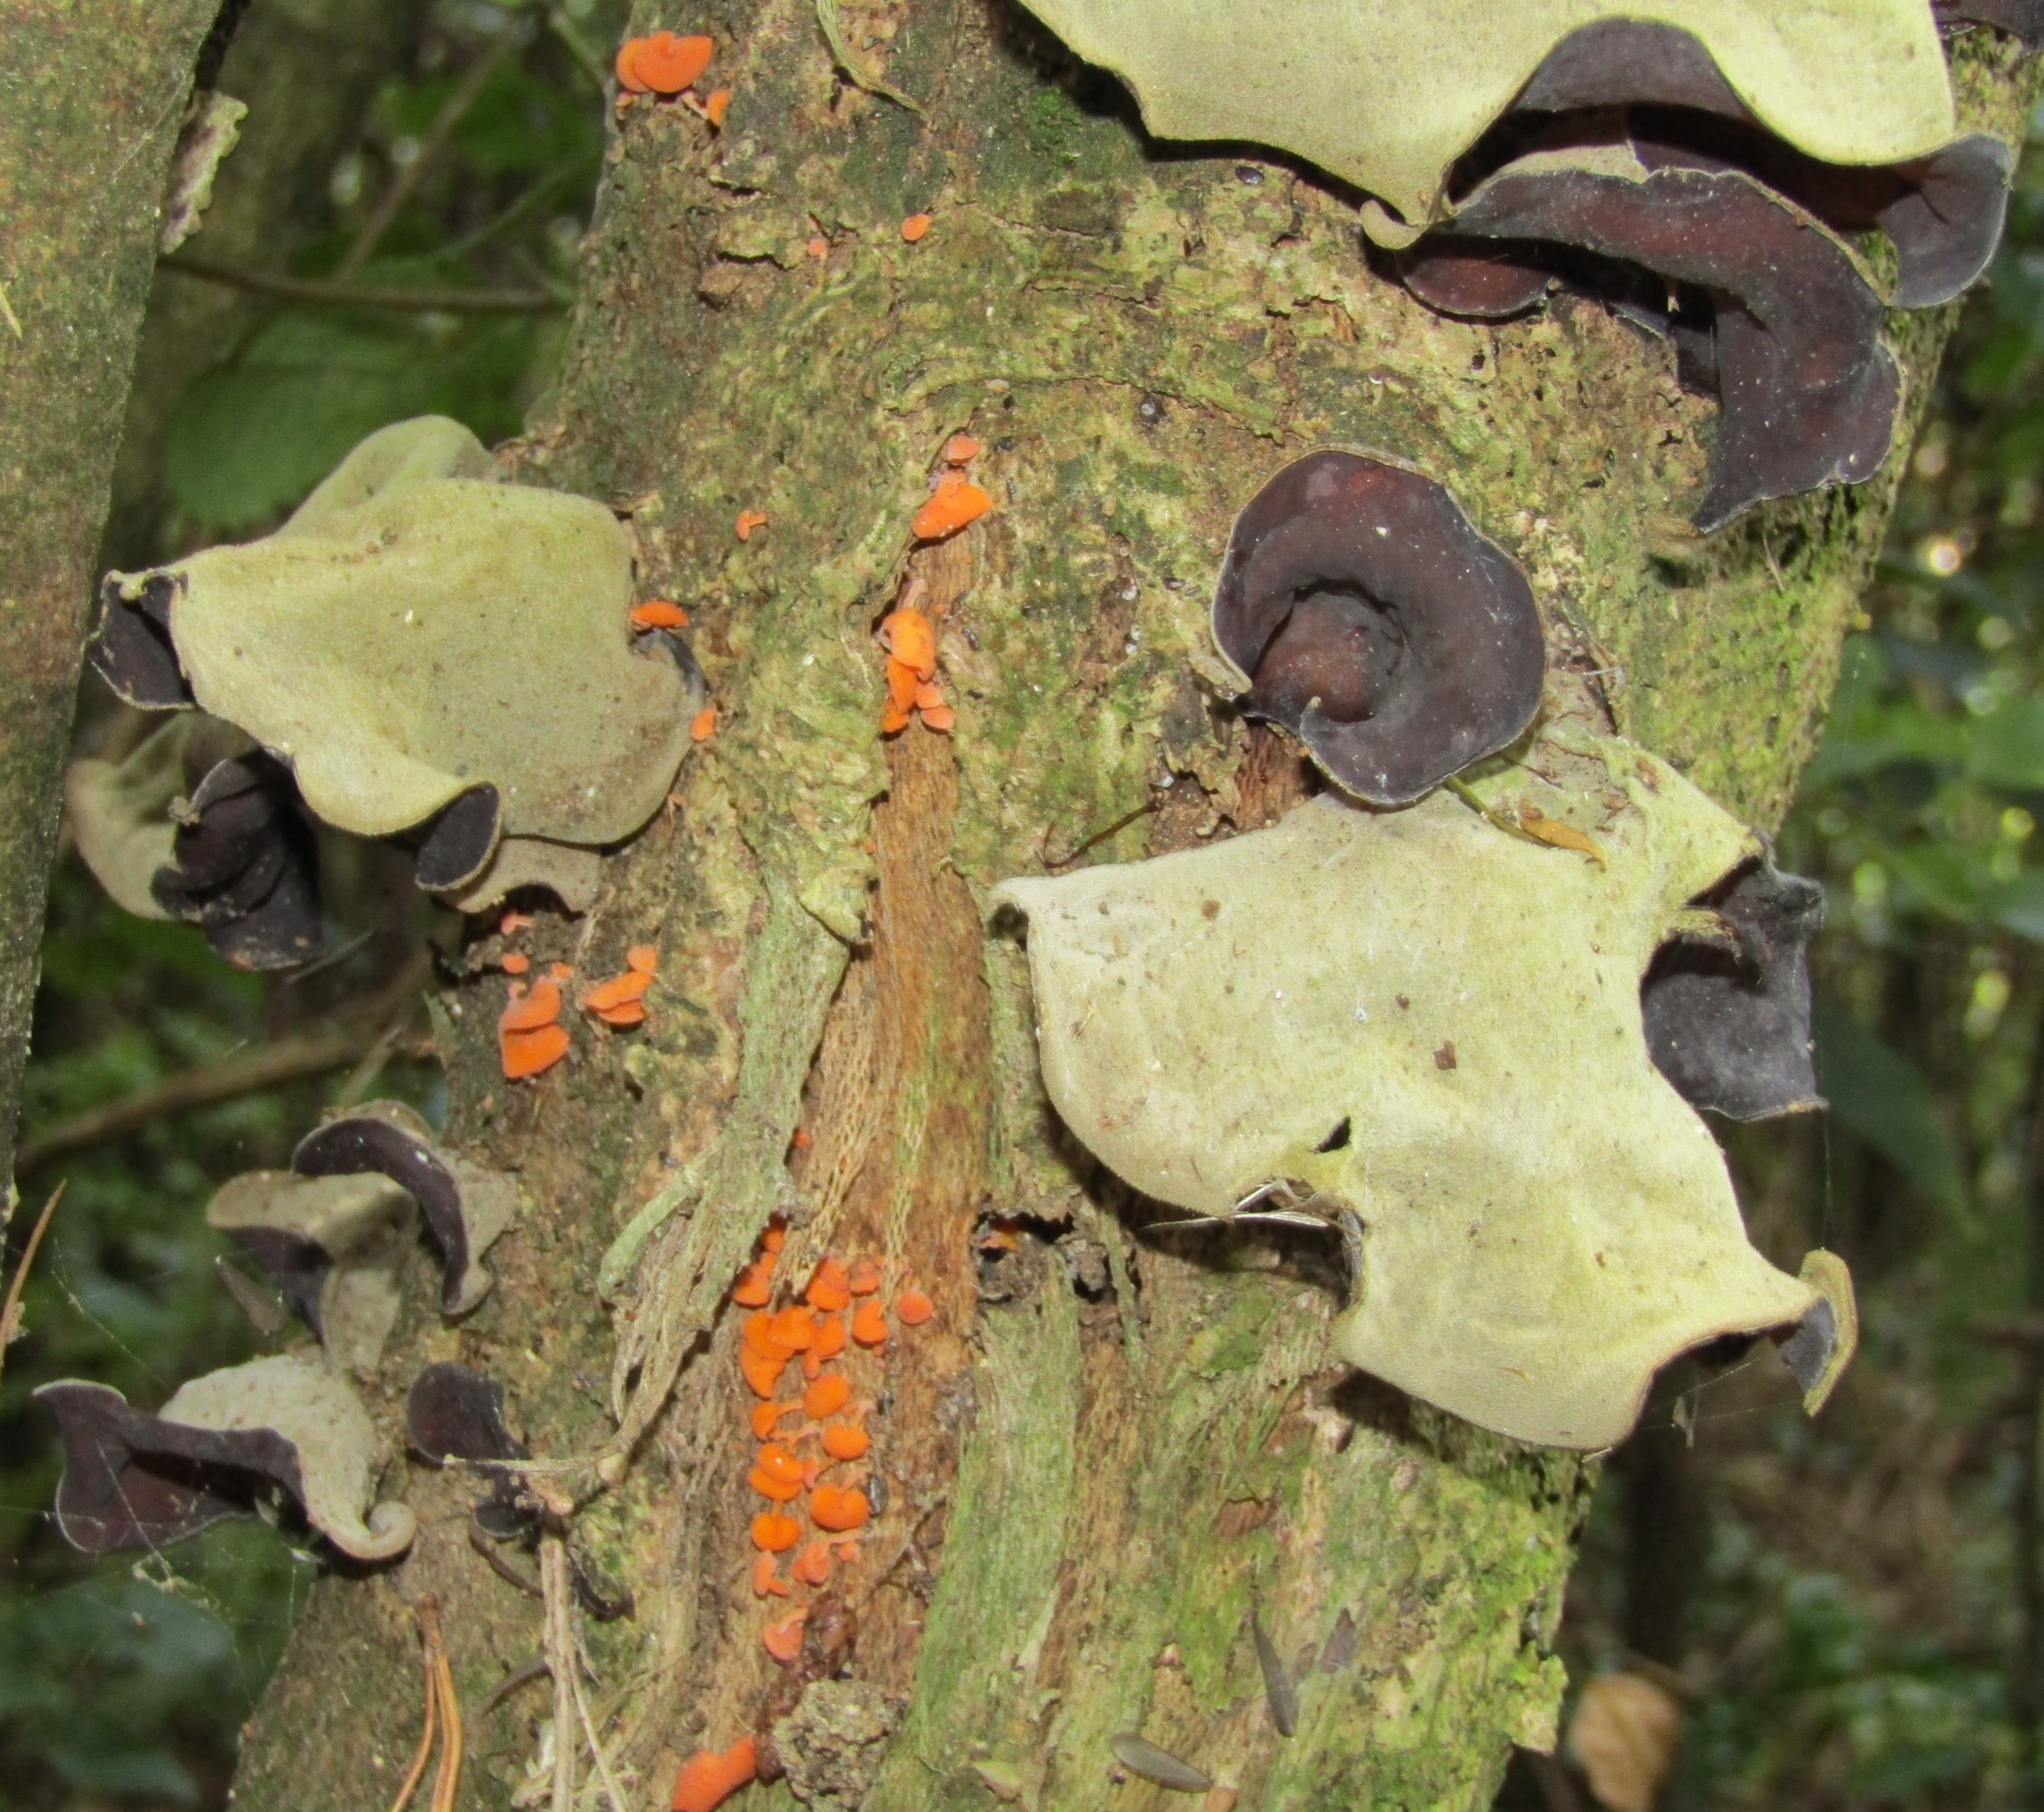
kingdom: Fungi
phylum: Basidiomycota
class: Agaricomycetes
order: Auriculariales
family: Auriculariaceae
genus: Auricularia
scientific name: Auricularia cornea
